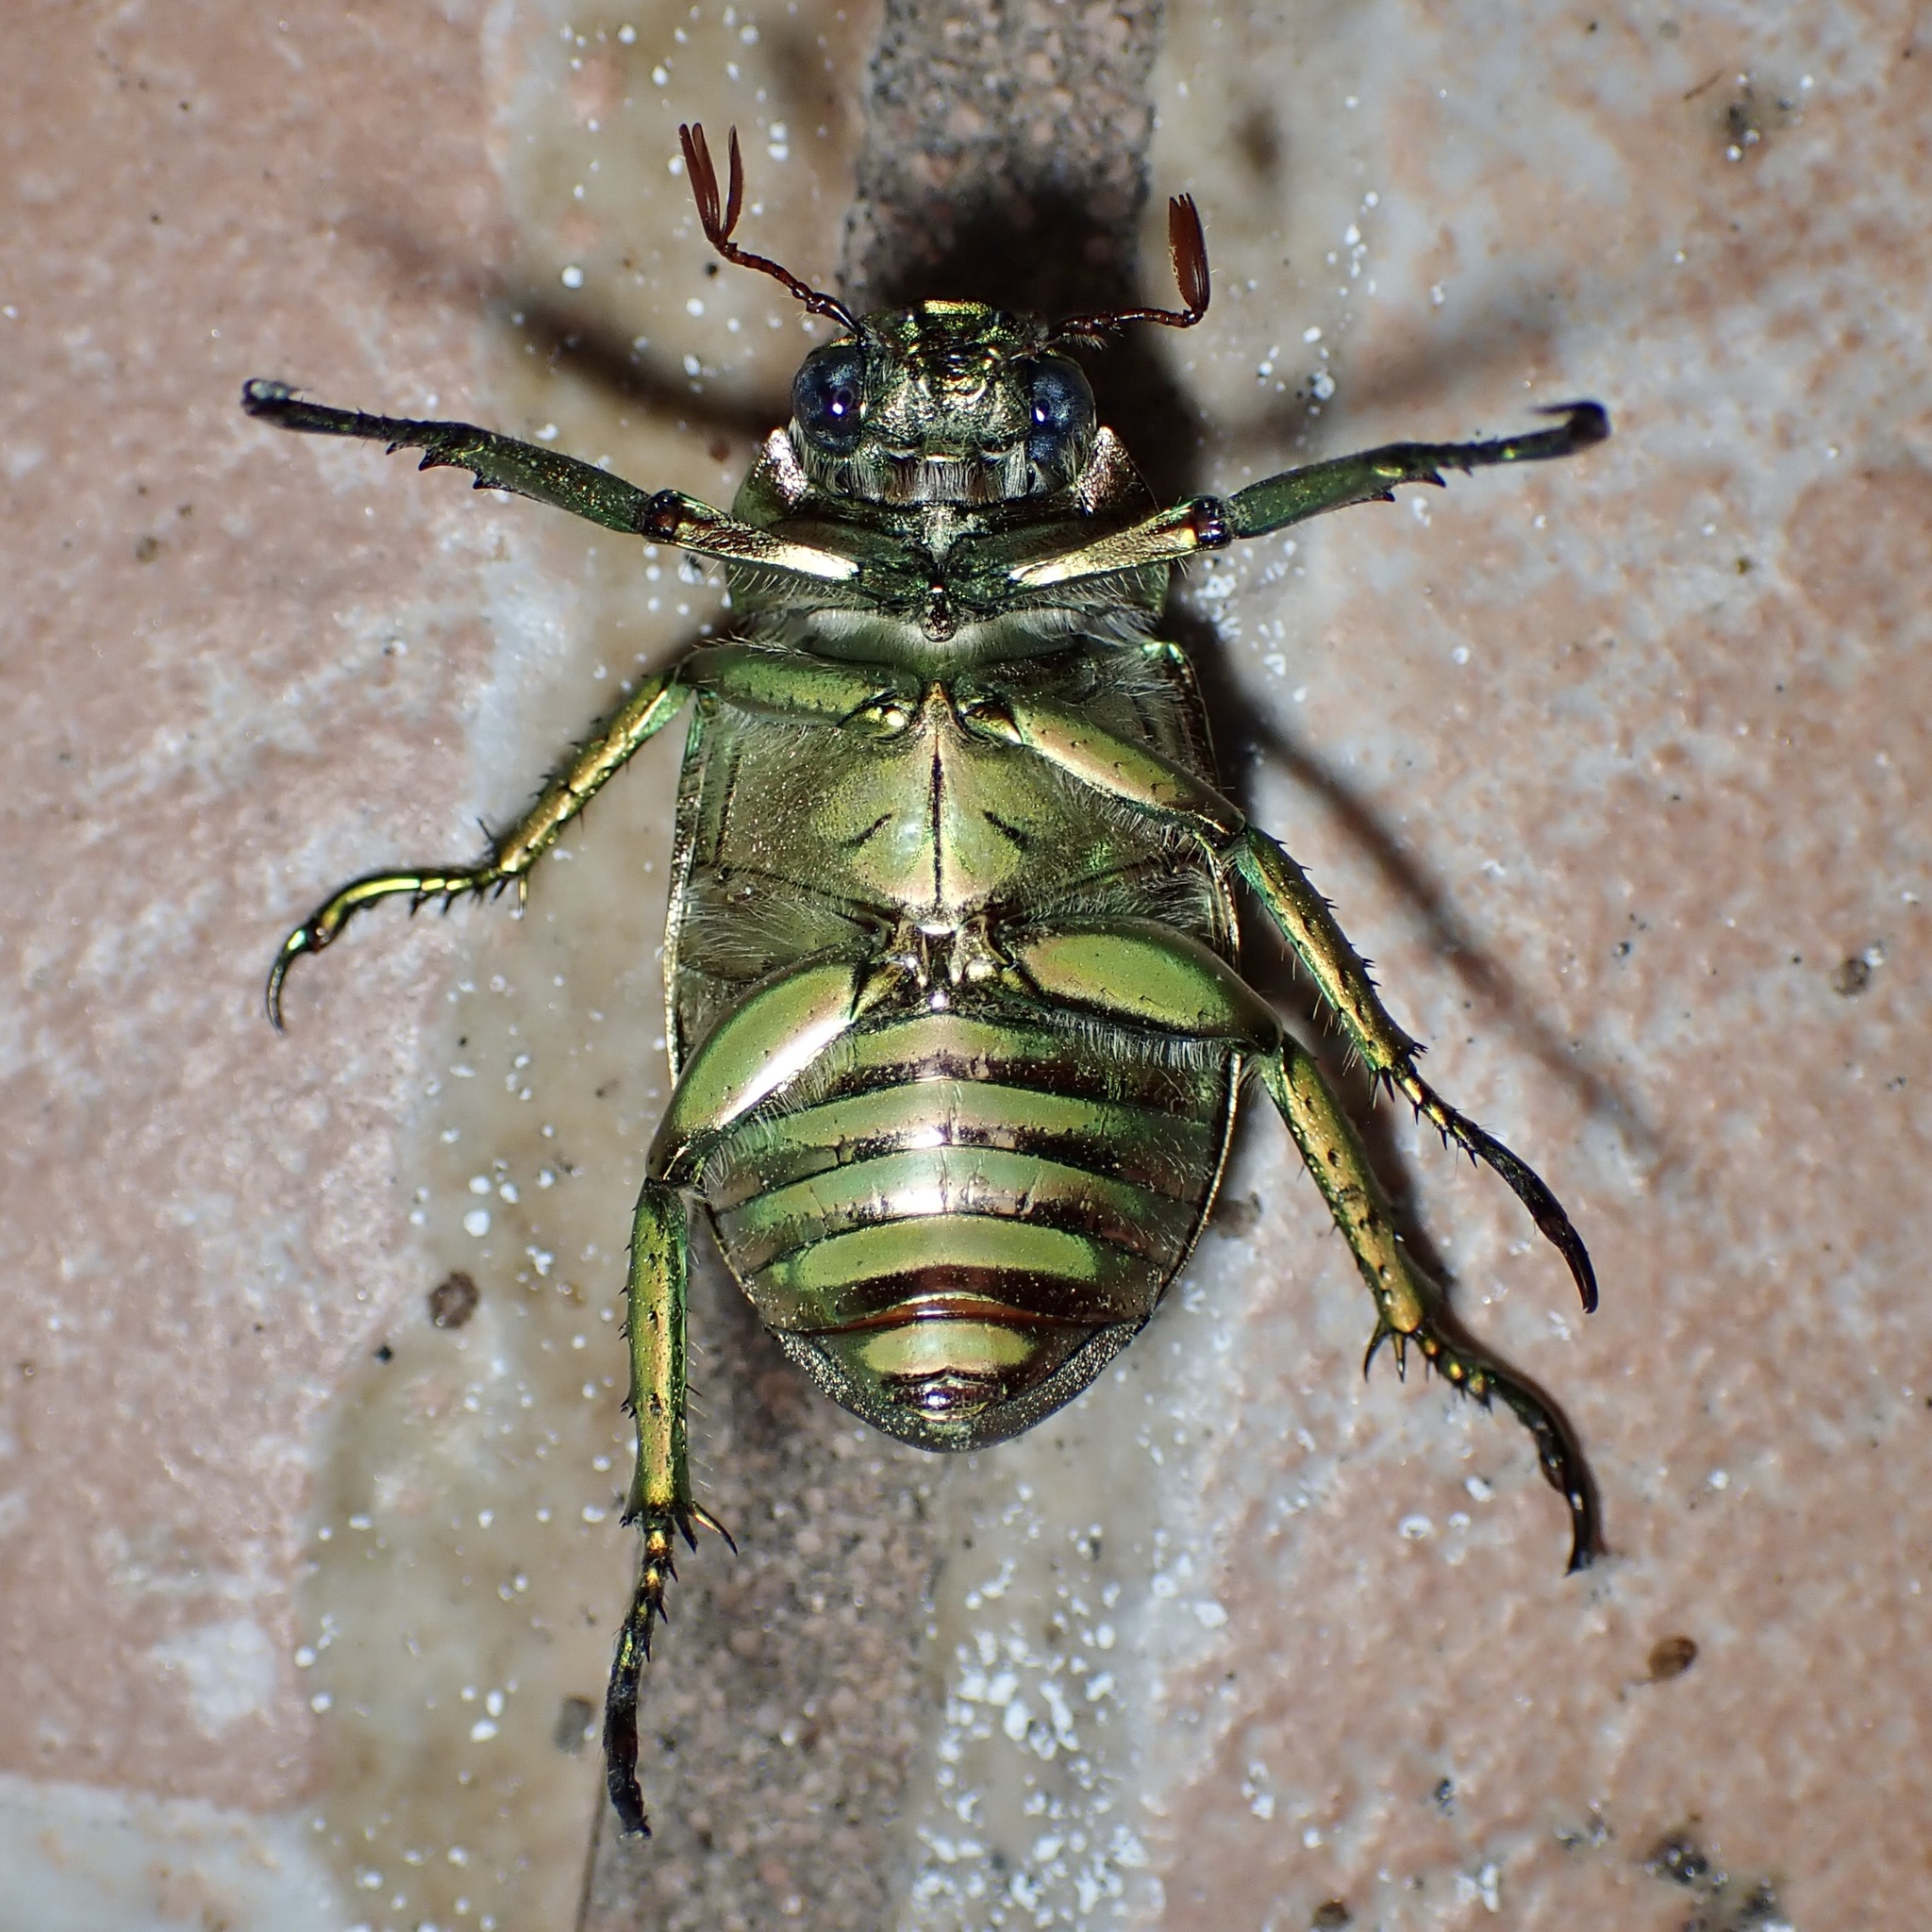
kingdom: Animalia
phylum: Arthropoda
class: Insecta
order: Coleoptera
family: Scarabaeidae
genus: Chrysina
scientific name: Chrysina gloriosa
